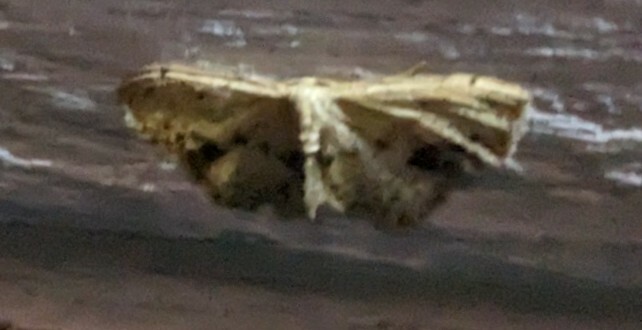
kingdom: Animalia
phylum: Arthropoda
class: Insecta
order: Lepidoptera
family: Geometridae
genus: Idaea
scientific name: Idaea dimidiata
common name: Single-dotted wave
